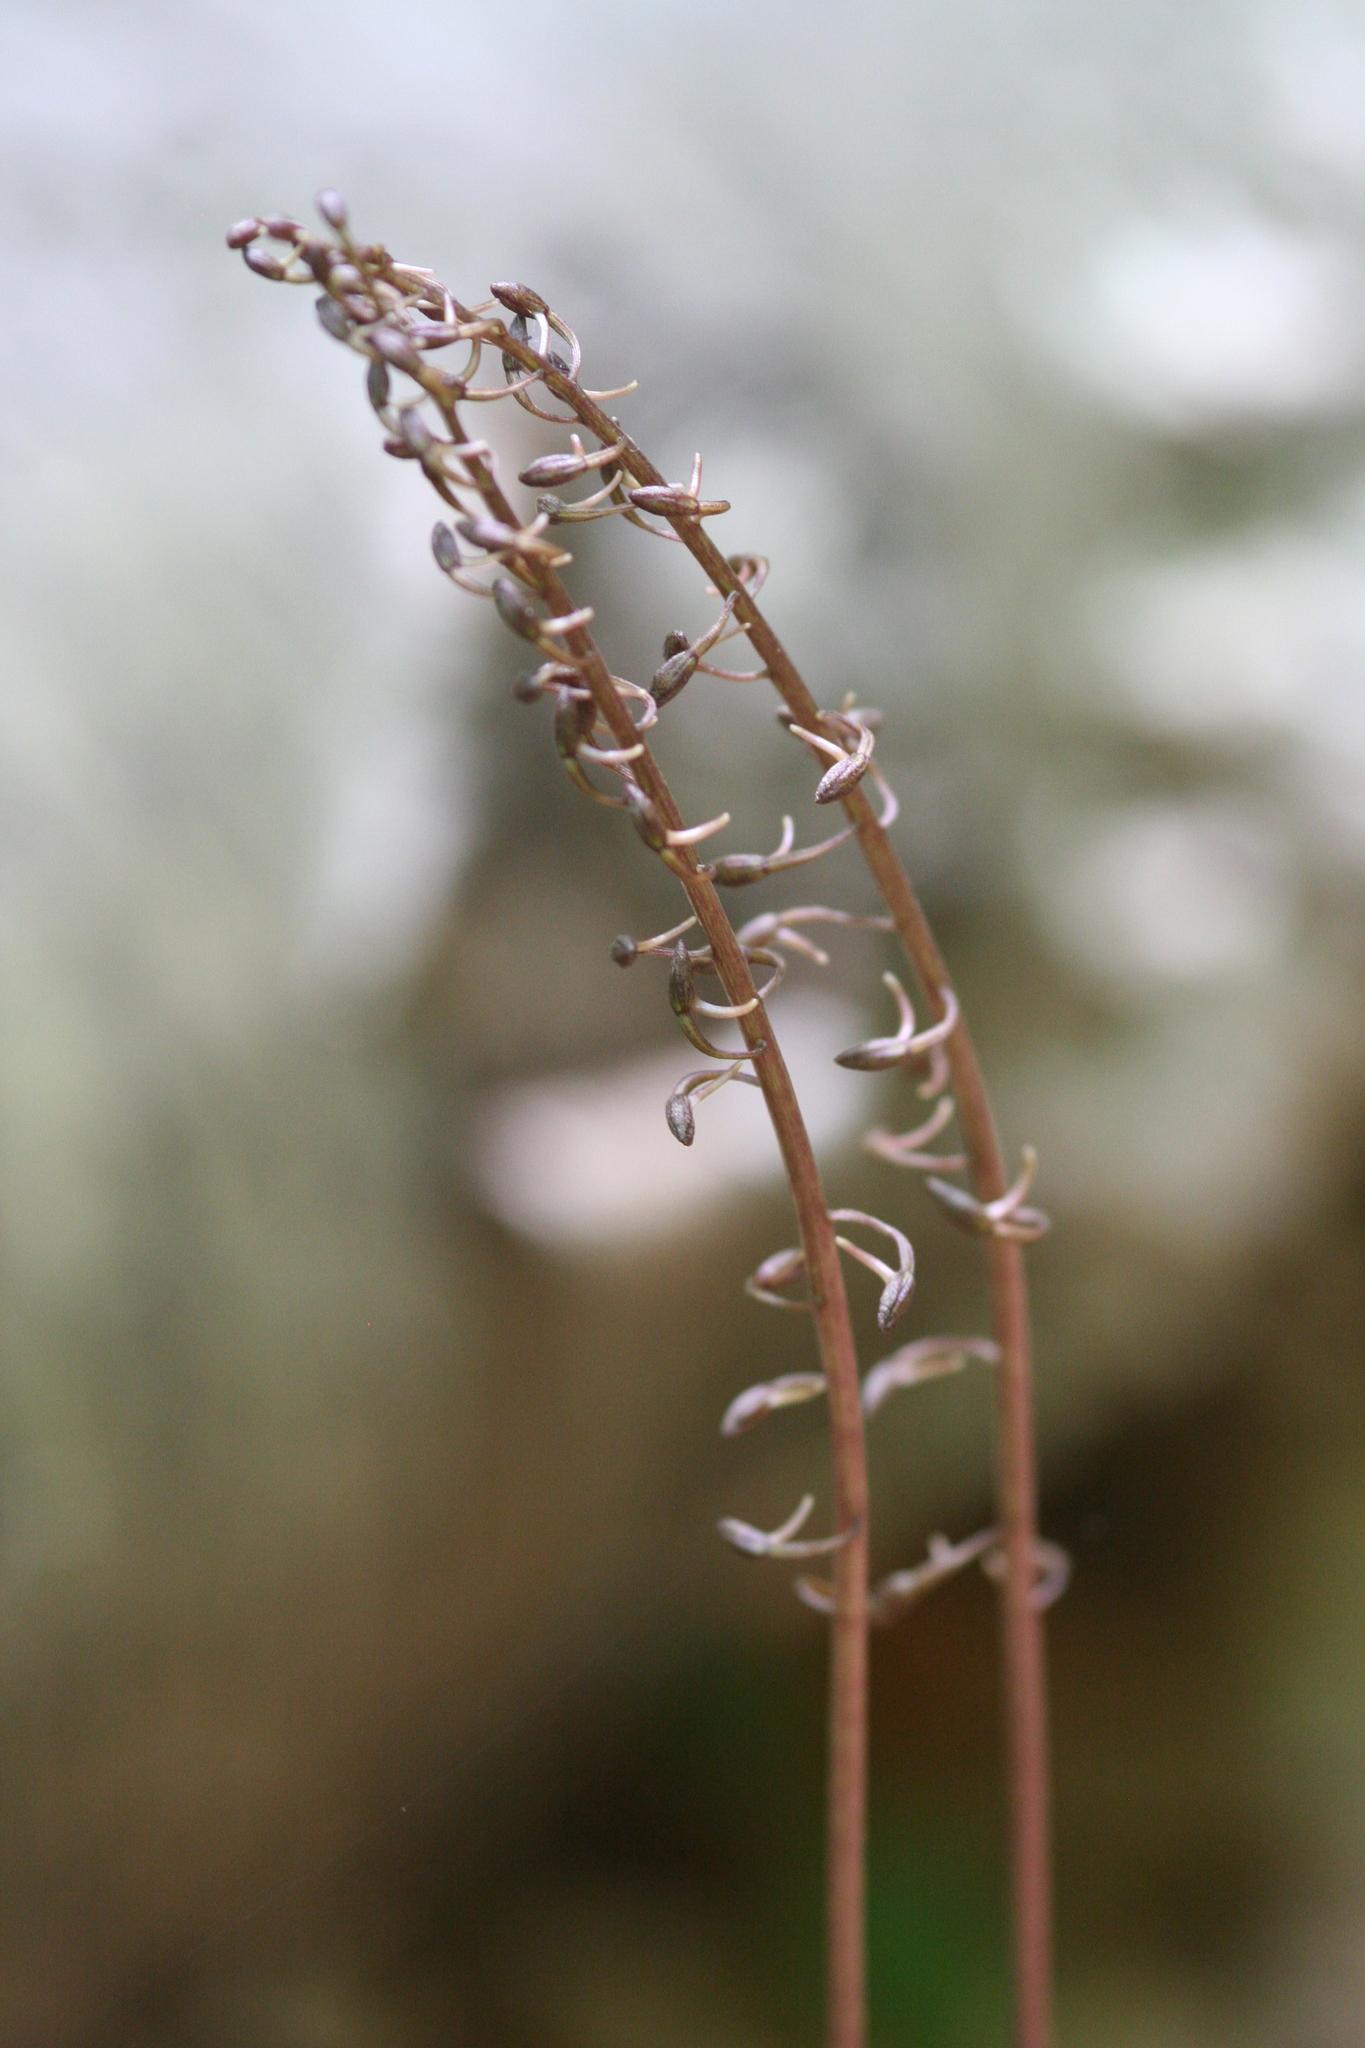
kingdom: Plantae
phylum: Tracheophyta
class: Liliopsida
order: Asparagales
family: Orchidaceae
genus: Tipularia
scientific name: Tipularia discolor
